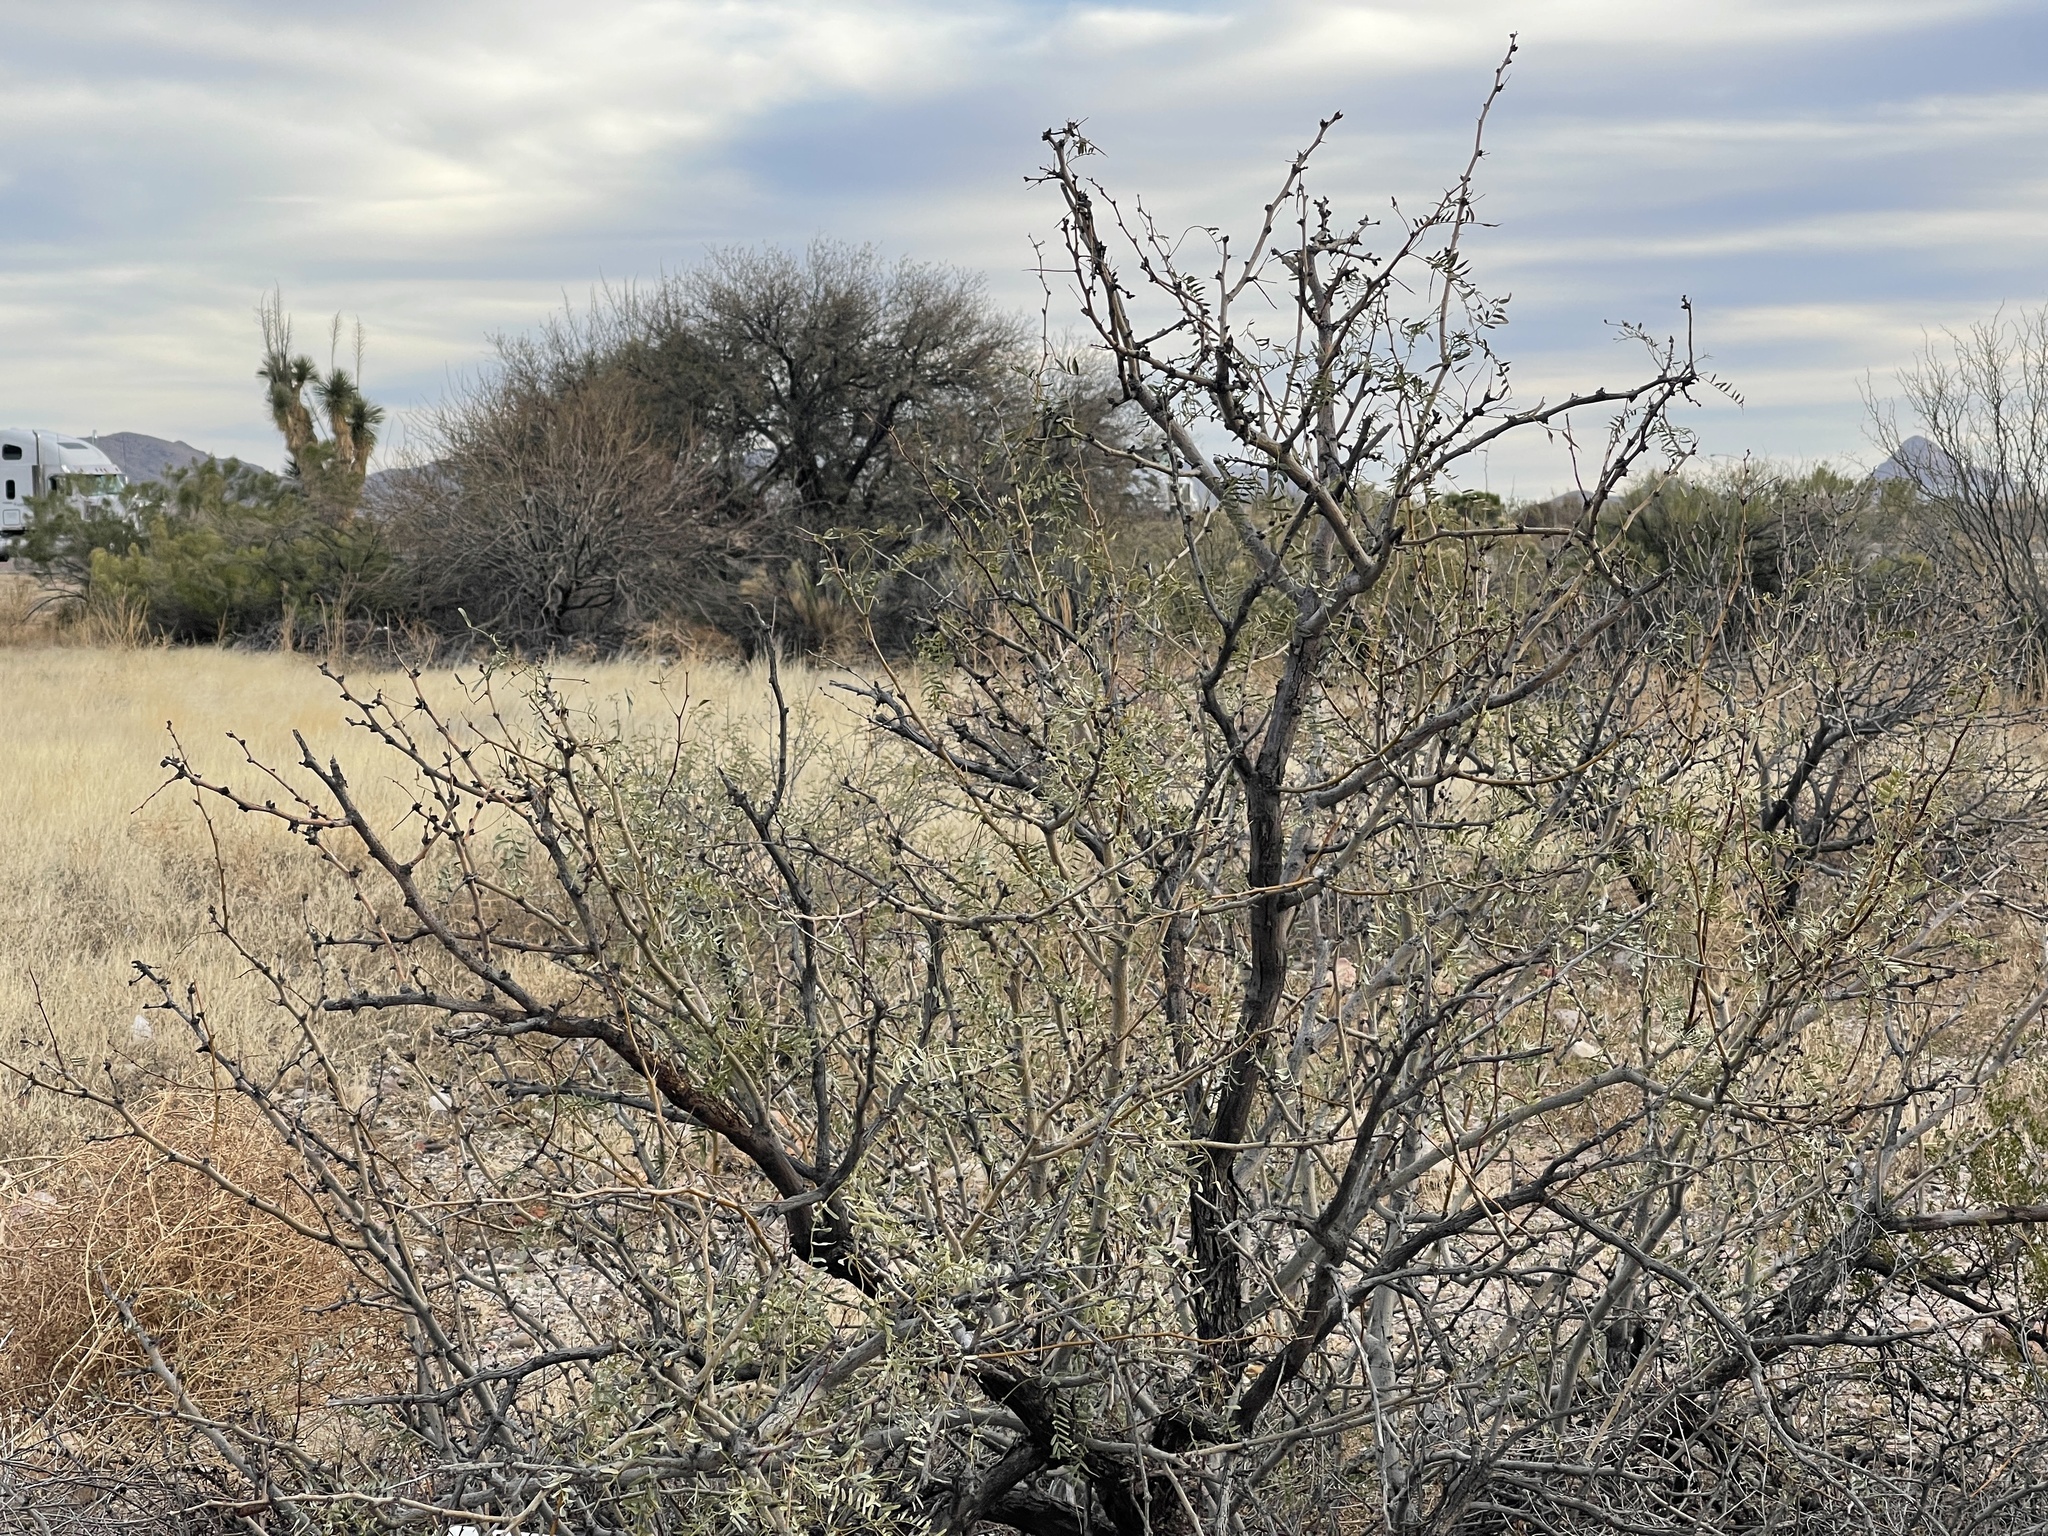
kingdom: Plantae
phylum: Tracheophyta
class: Magnoliopsida
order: Fabales
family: Fabaceae
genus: Prosopis
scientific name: Prosopis glandulosa
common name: Honey mesquite
